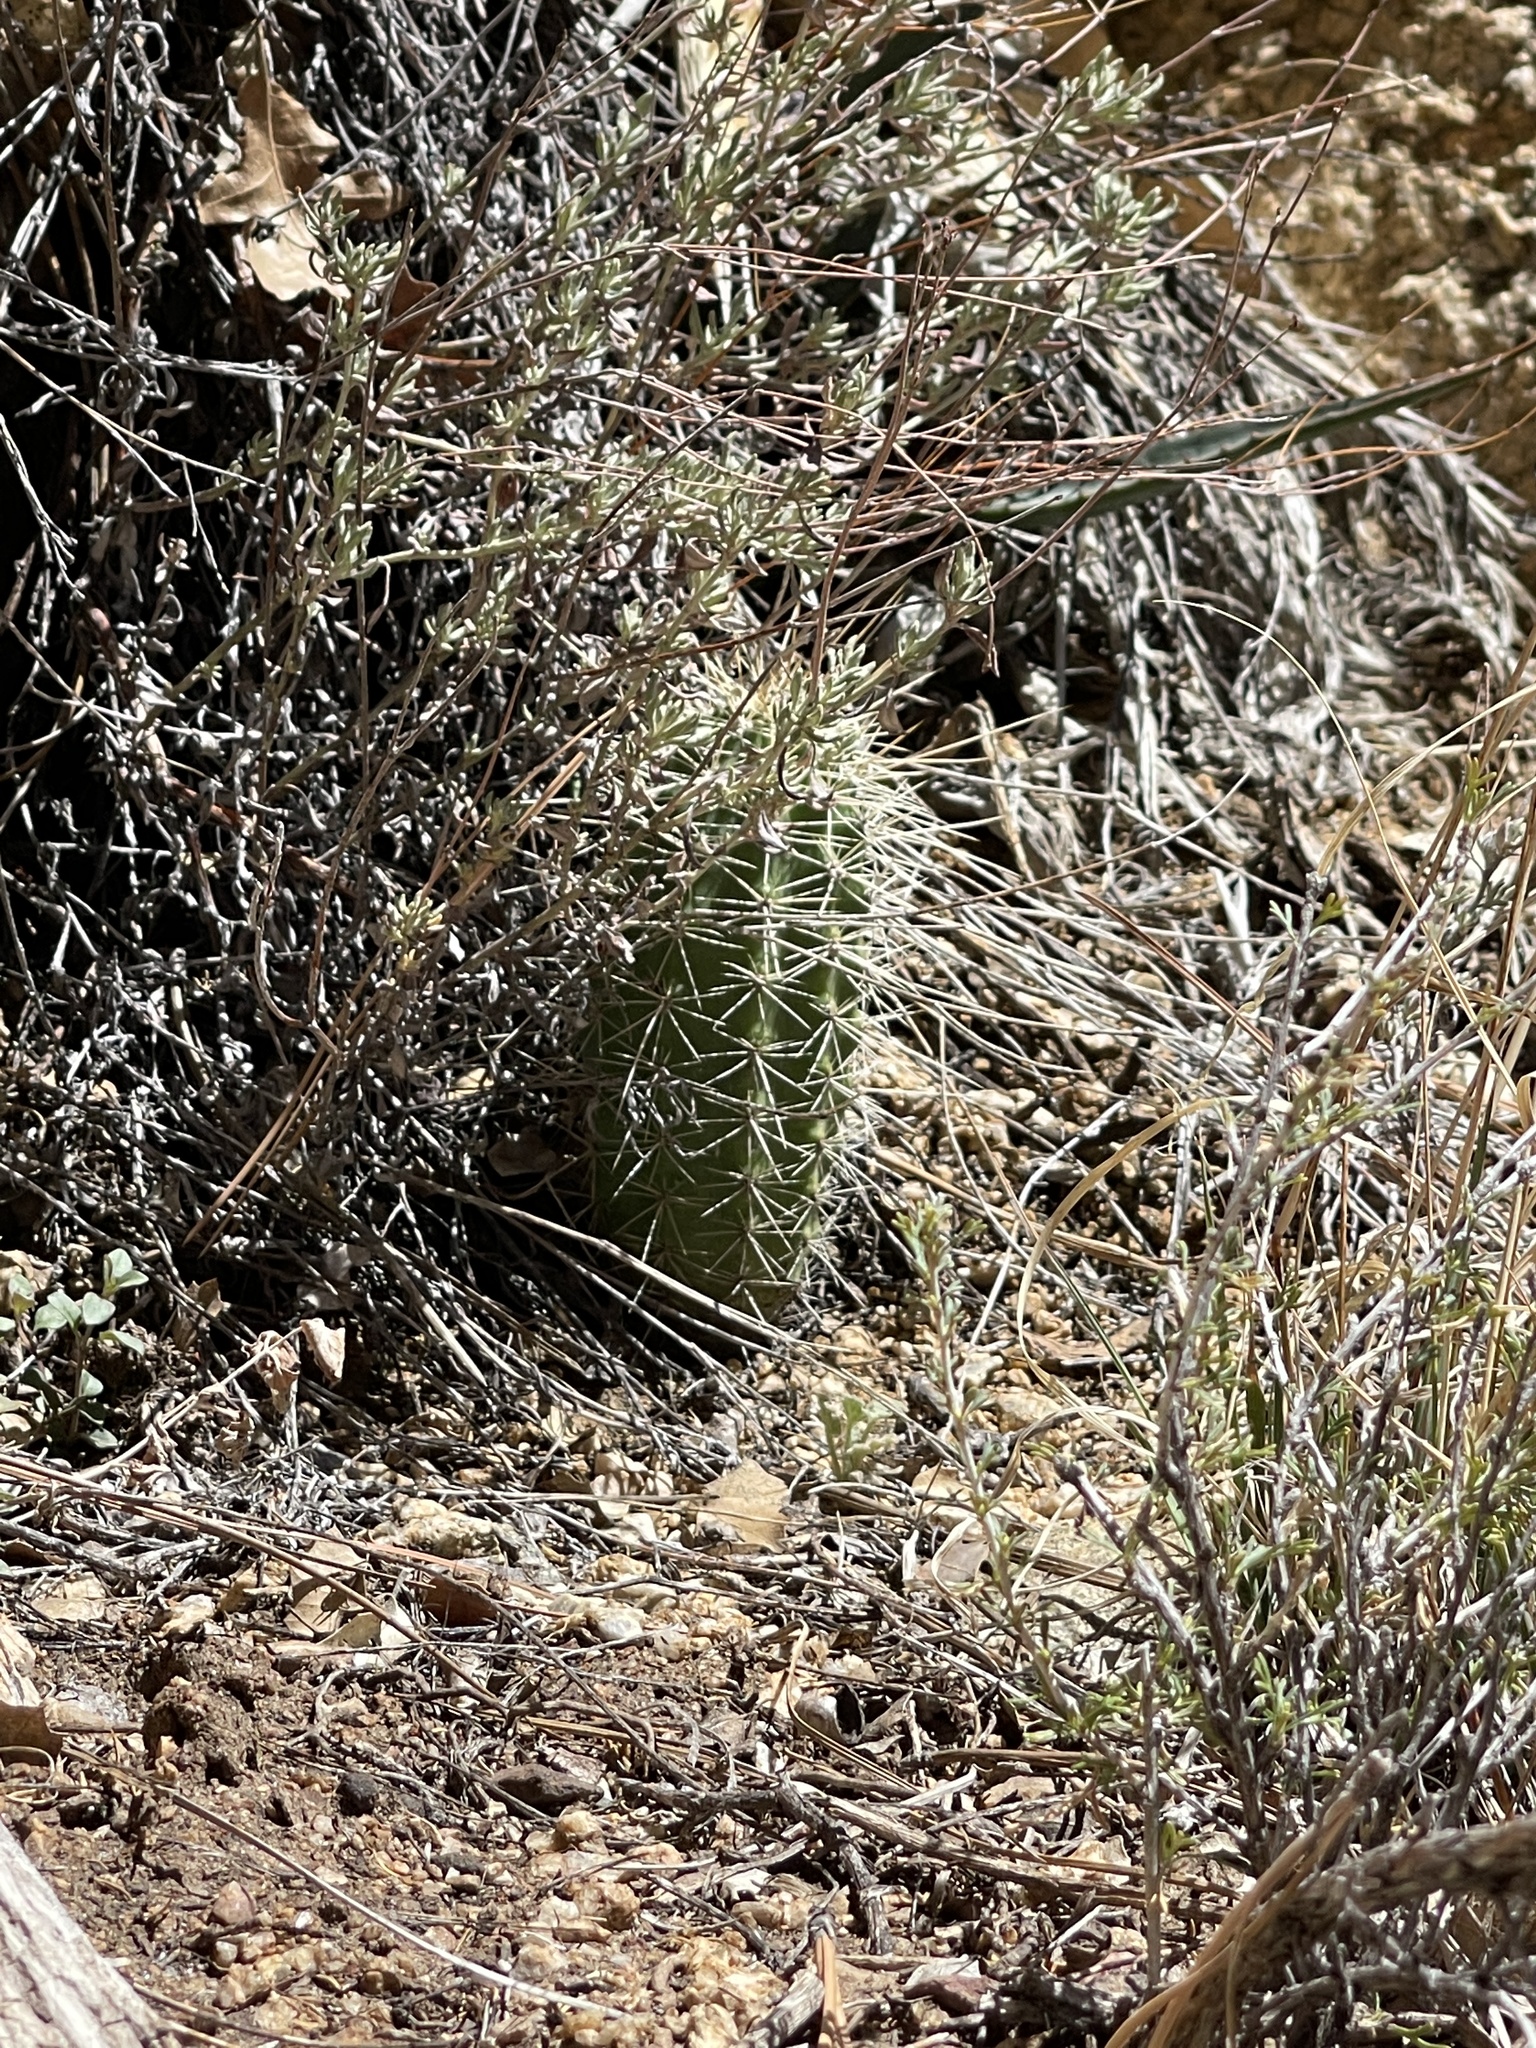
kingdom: Plantae
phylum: Tracheophyta
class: Magnoliopsida
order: Caryophyllales
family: Cactaceae
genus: Echinocereus
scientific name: Echinocereus bakeri
